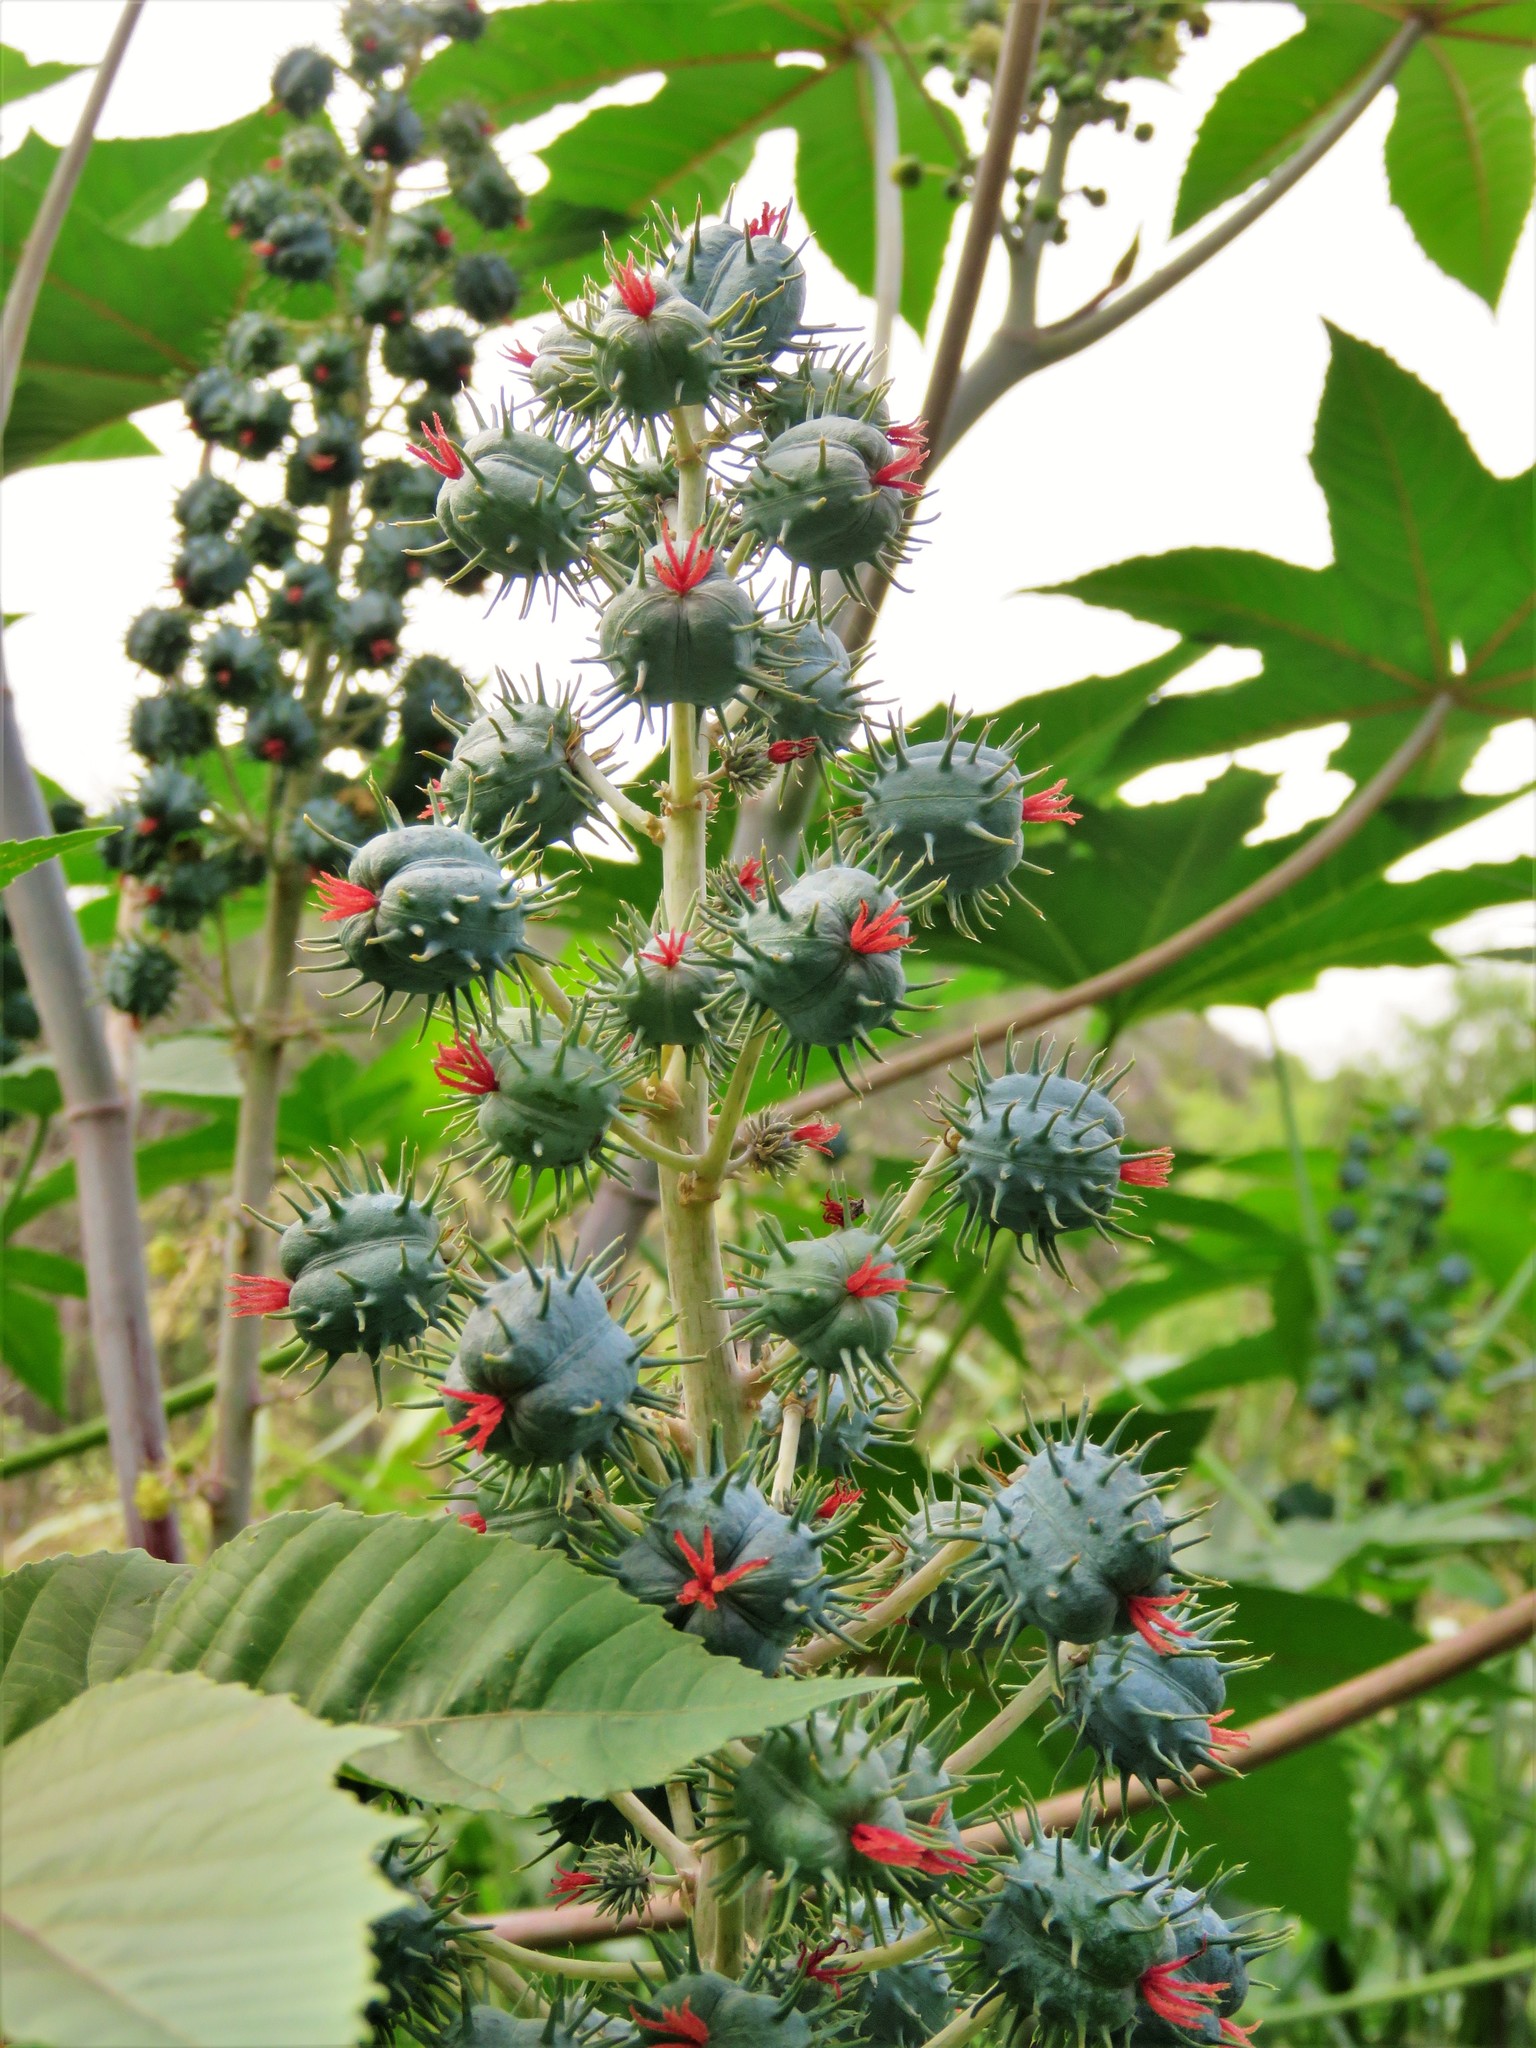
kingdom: Plantae
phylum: Tracheophyta
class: Magnoliopsida
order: Malpighiales
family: Euphorbiaceae
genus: Ricinus
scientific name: Ricinus communis
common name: Castor-oil-plant
